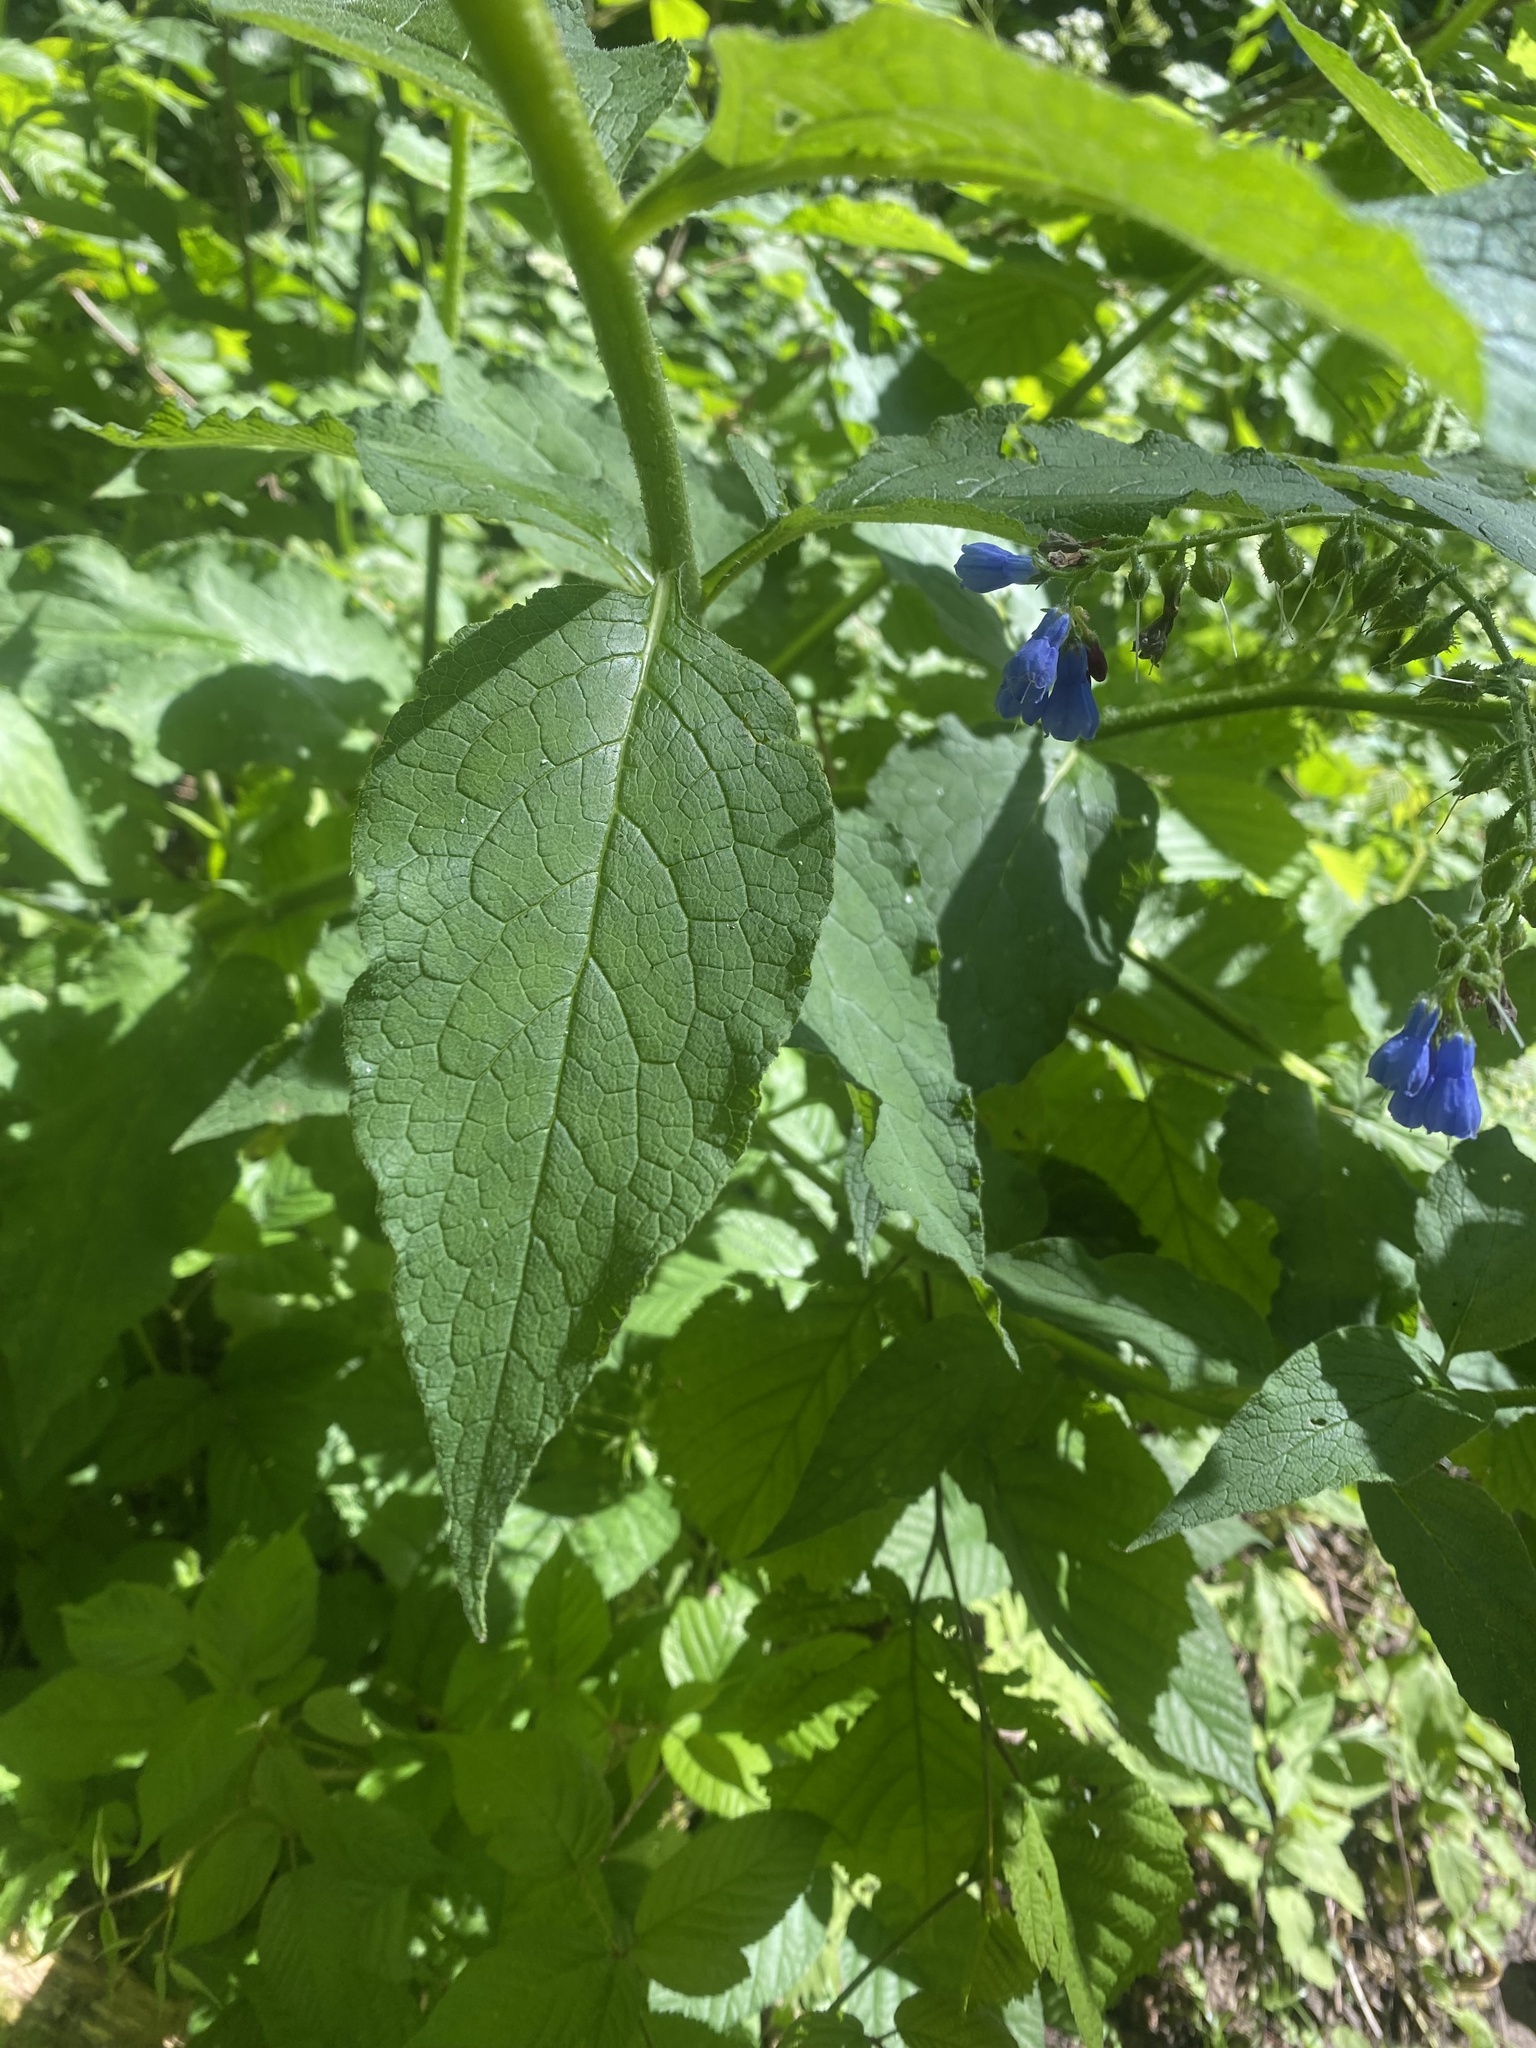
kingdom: Plantae
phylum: Tracheophyta
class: Magnoliopsida
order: Boraginales
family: Boraginaceae
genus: Symphytum
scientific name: Symphytum asperum
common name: Prickly comfrey
